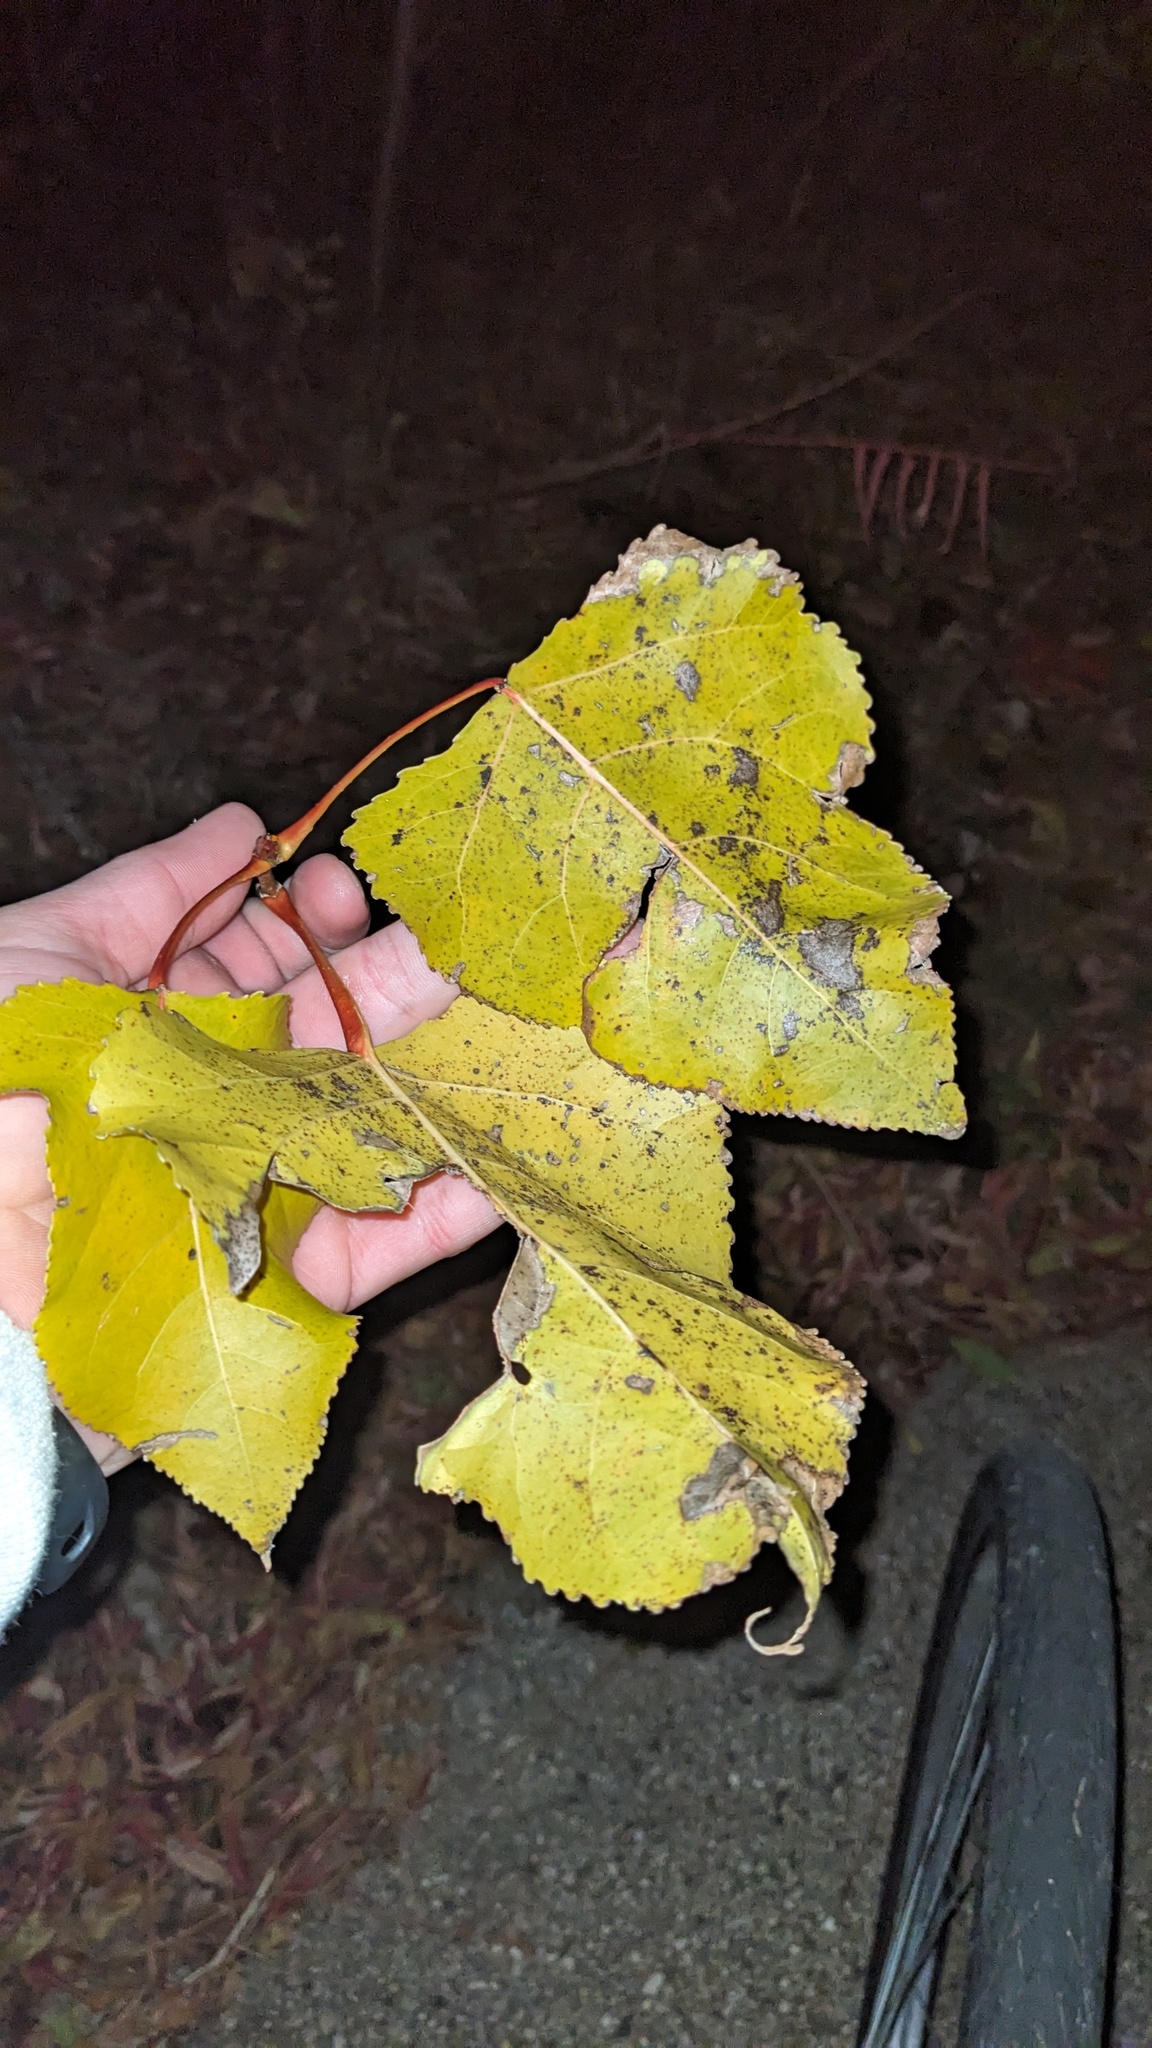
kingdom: Plantae
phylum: Tracheophyta
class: Magnoliopsida
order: Malpighiales
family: Salicaceae
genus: Populus
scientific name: Populus deltoides
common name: Eastern cottonwood
